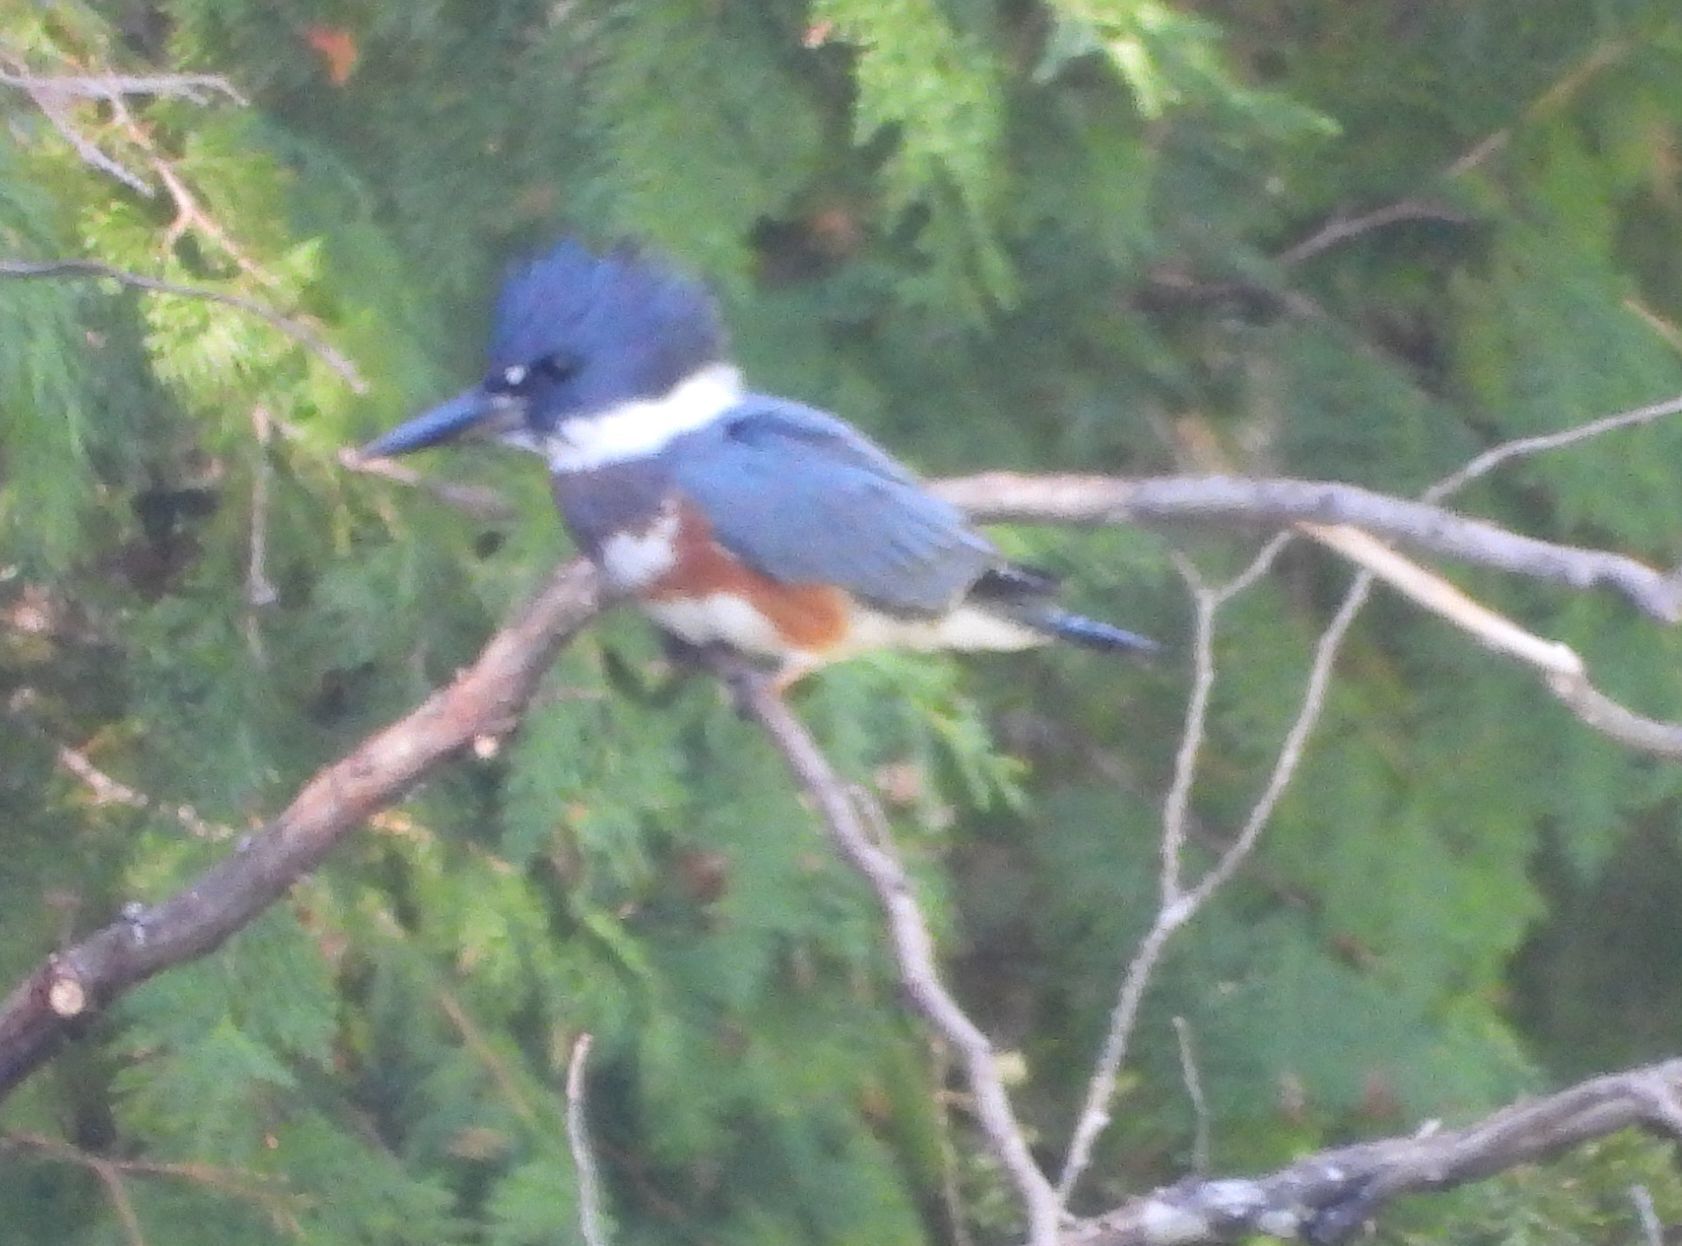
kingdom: Animalia
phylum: Chordata
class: Aves
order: Coraciiformes
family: Alcedinidae
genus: Megaceryle
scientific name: Megaceryle alcyon
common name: Belted kingfisher
